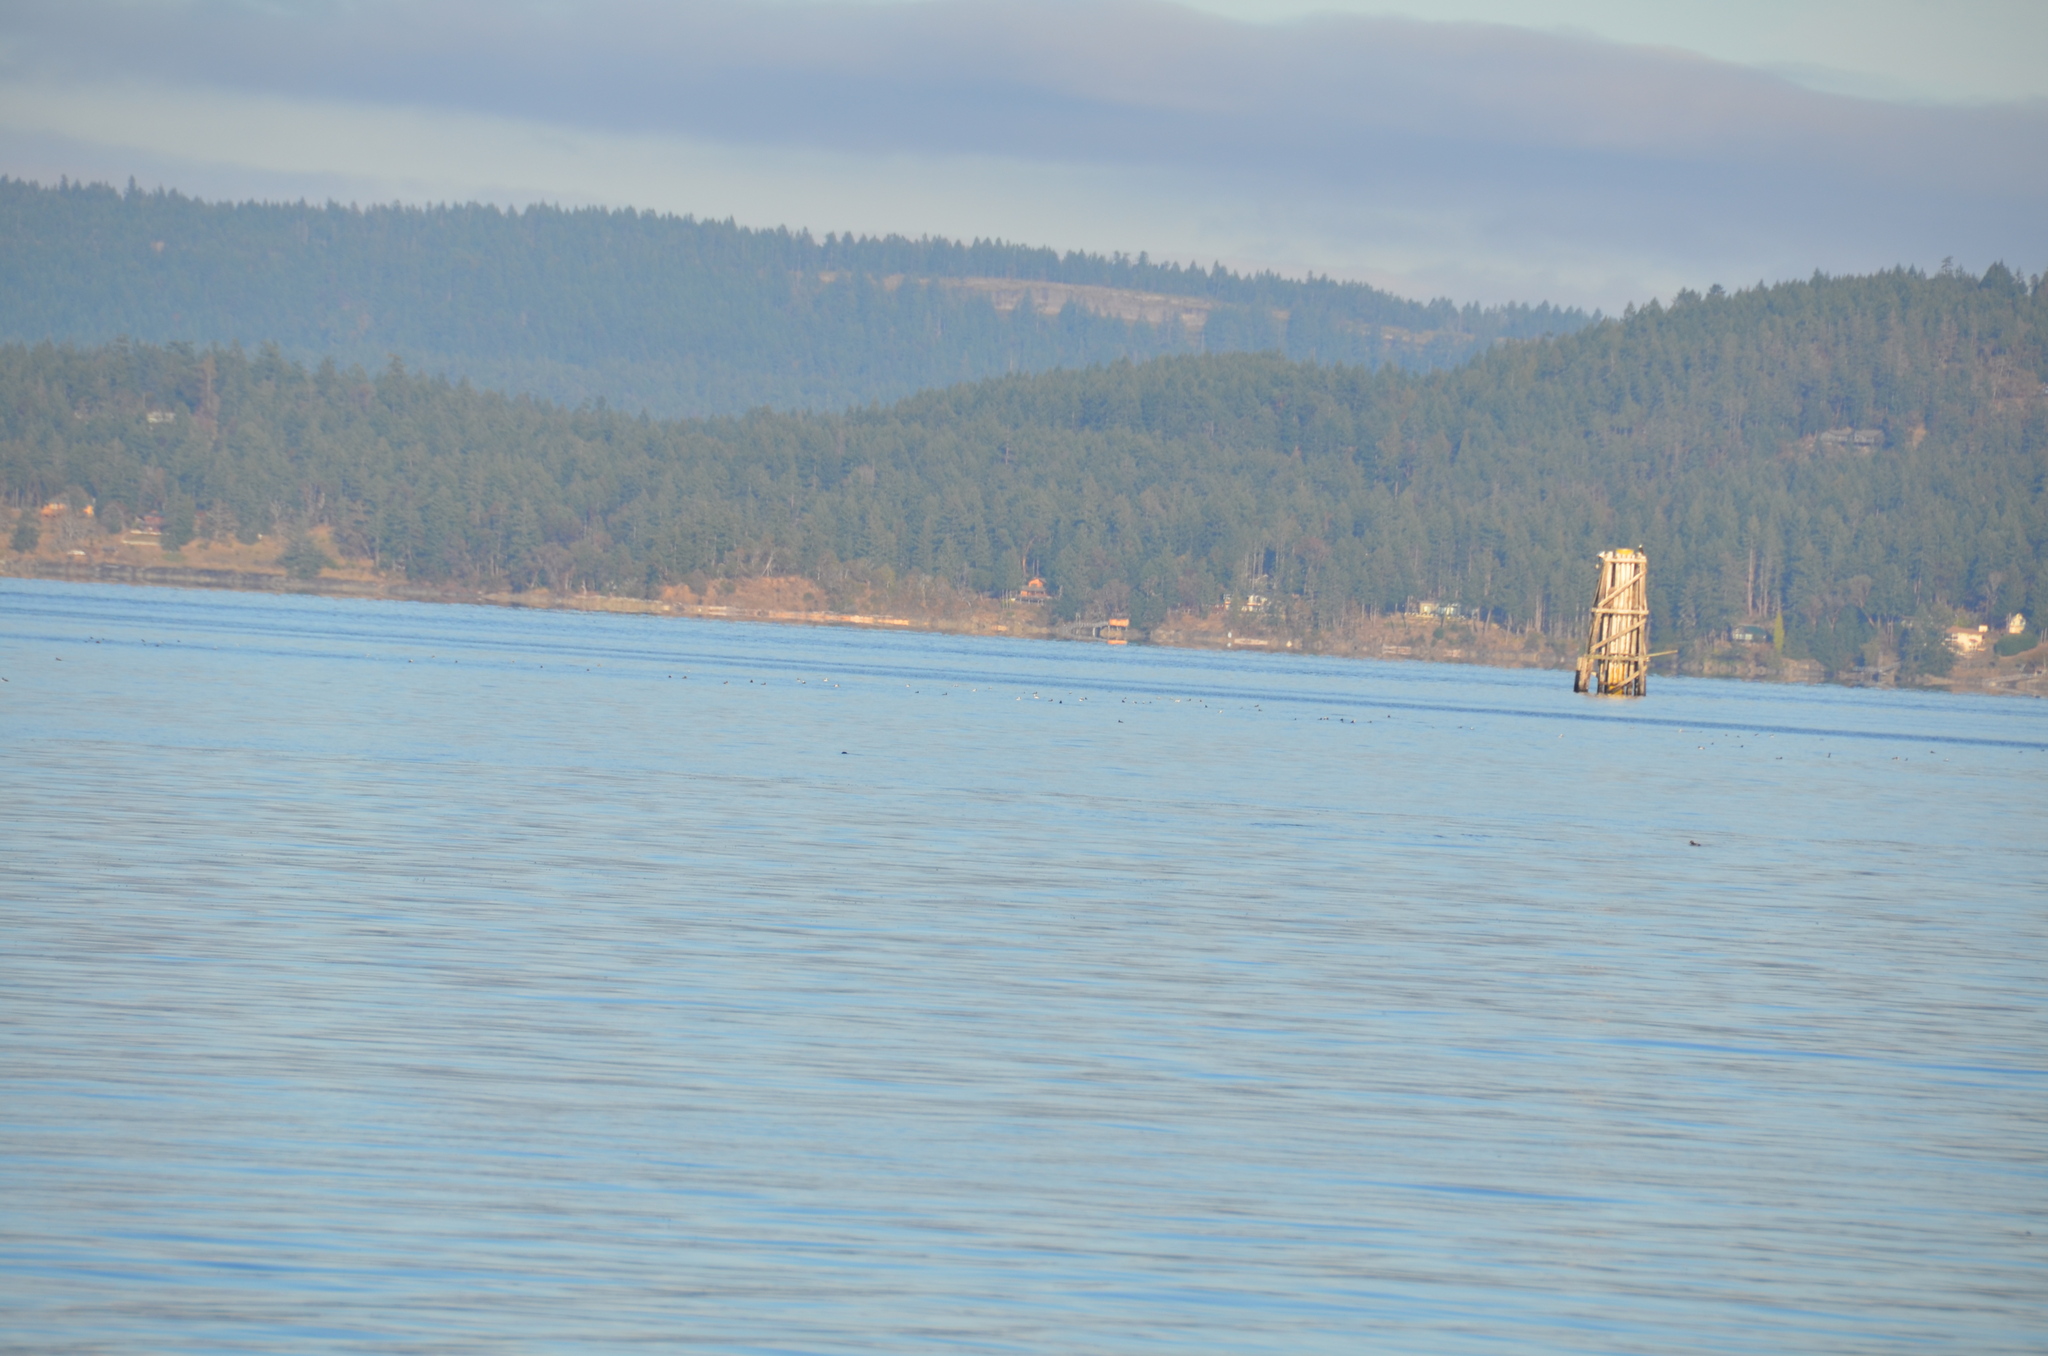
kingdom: Animalia
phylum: Chordata
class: Aves
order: Anseriformes
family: Anatidae
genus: Bucephala
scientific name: Bucephala albeola
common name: Bufflehead
